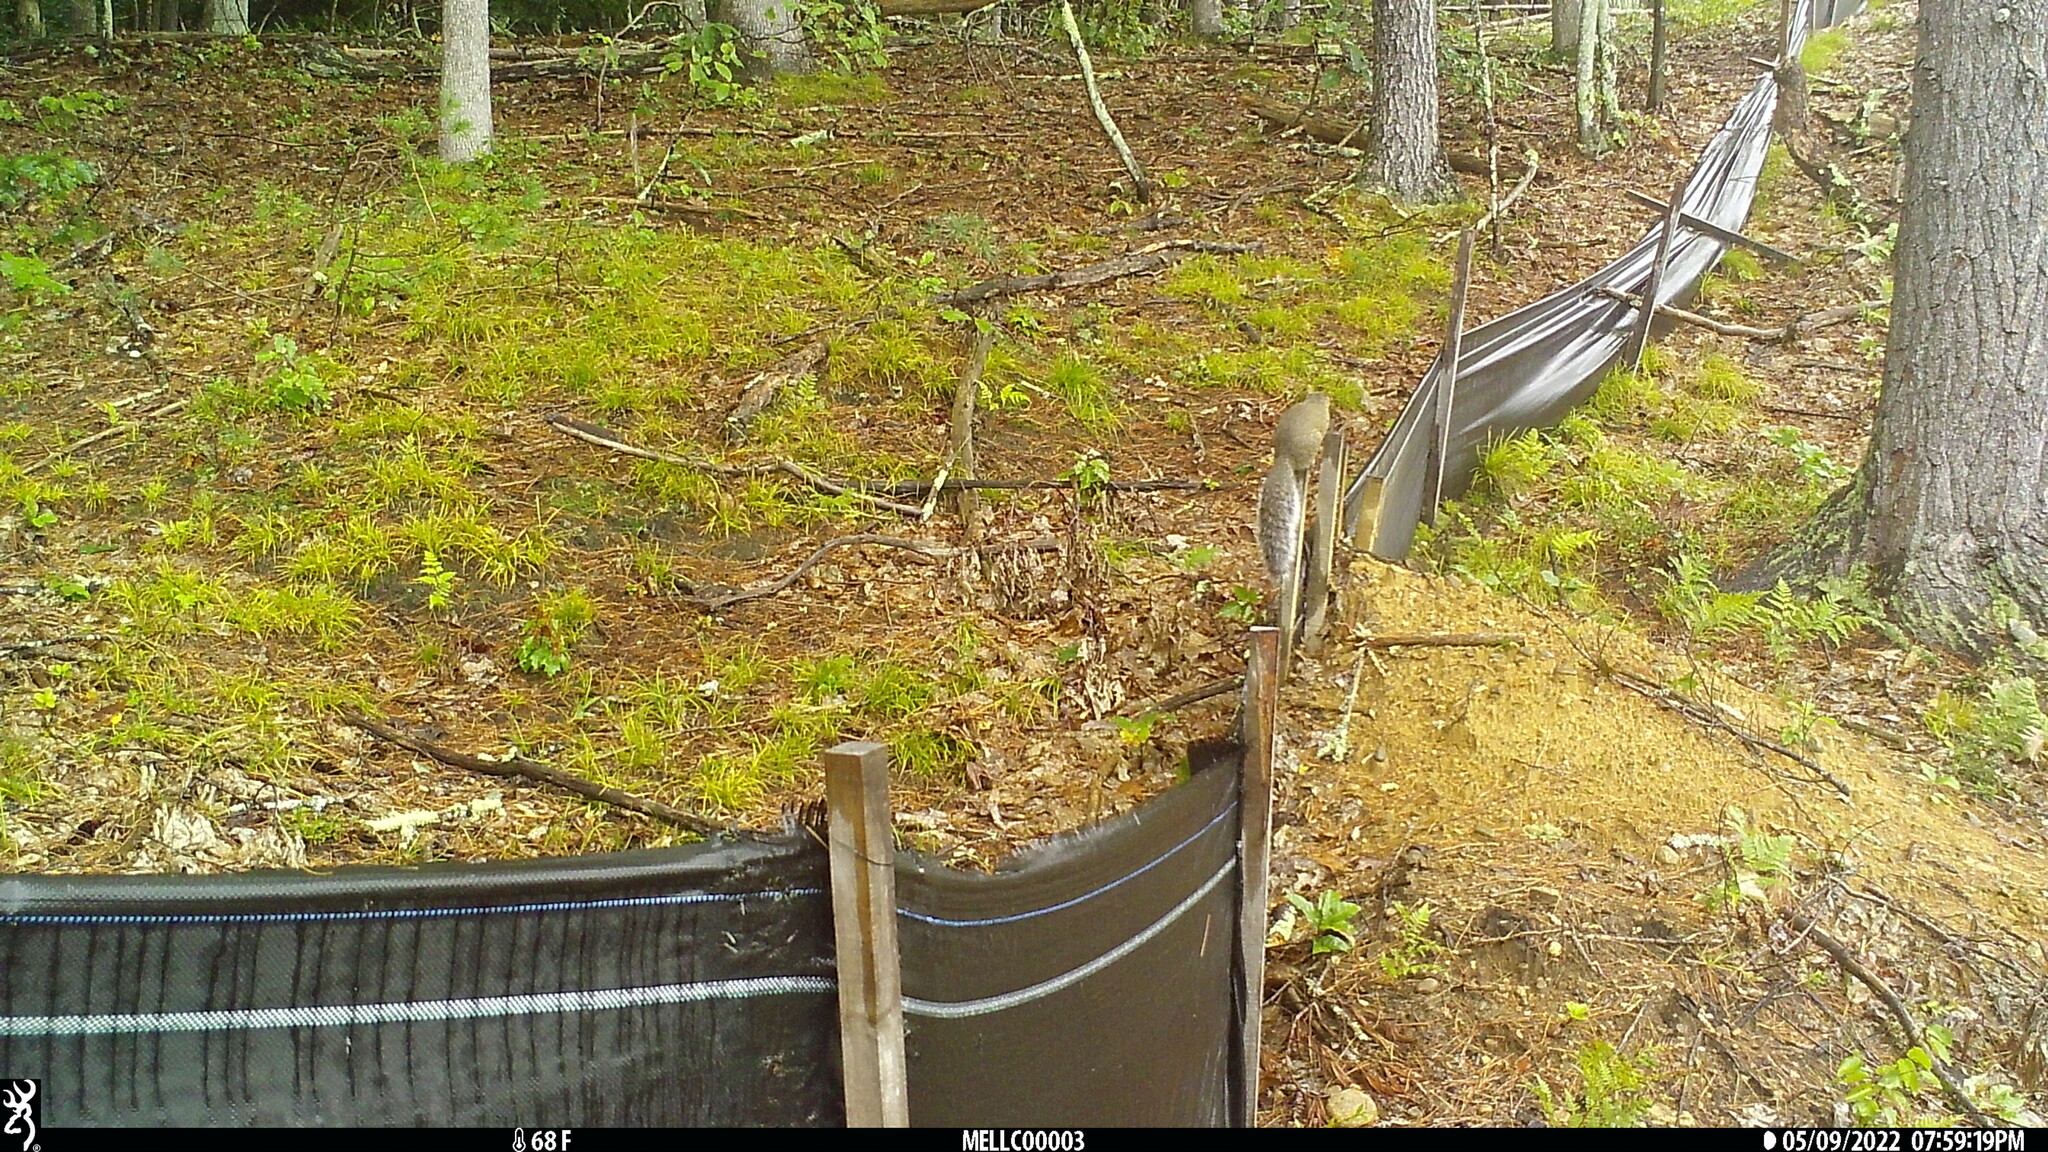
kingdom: Animalia
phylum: Chordata
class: Mammalia
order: Rodentia
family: Sciuridae
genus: Sciurus
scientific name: Sciurus carolinensis
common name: Eastern gray squirrel
